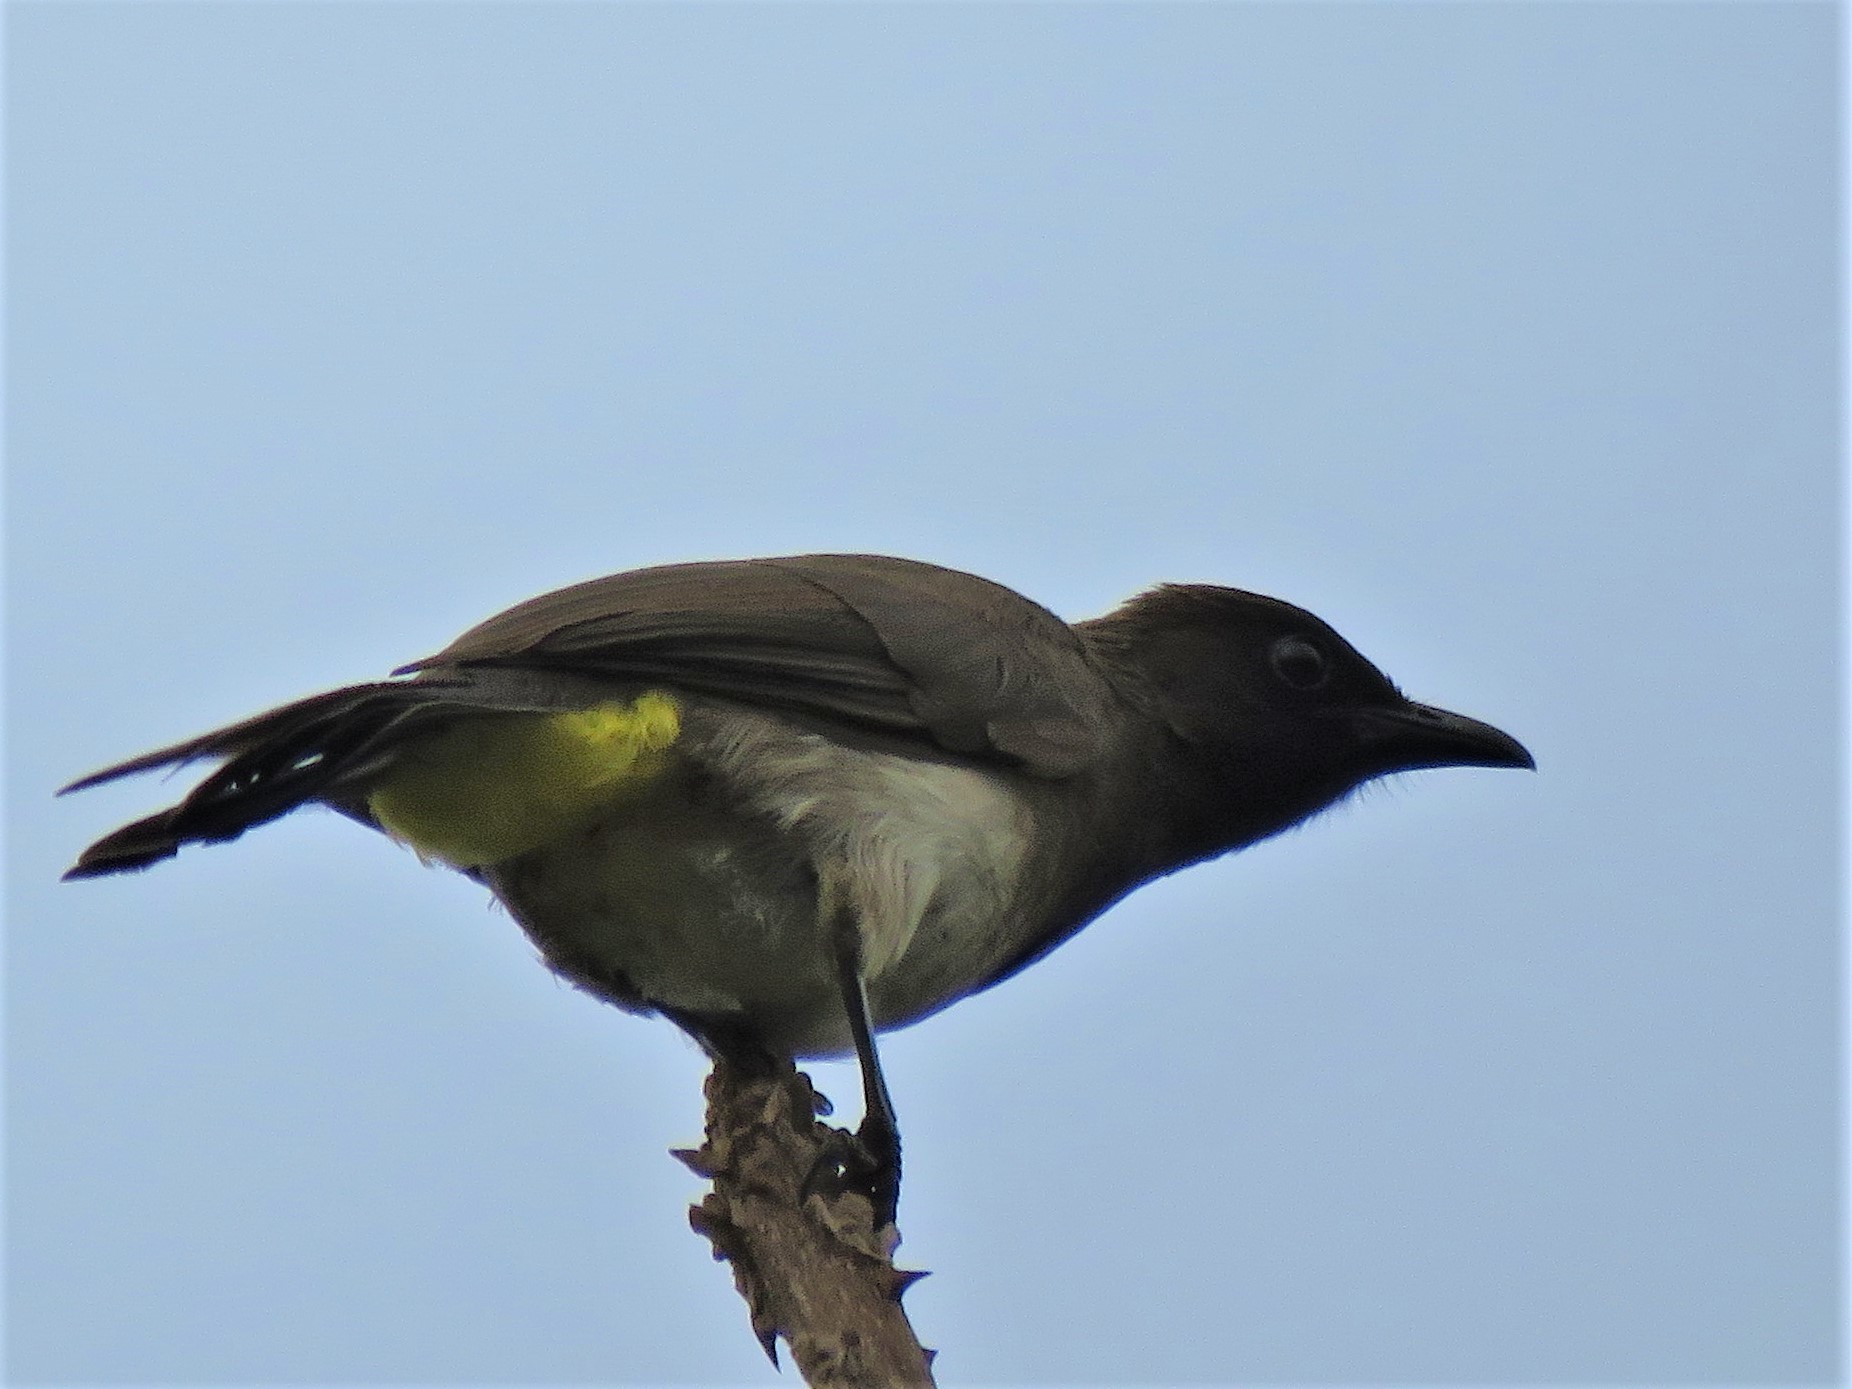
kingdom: Animalia
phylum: Chordata
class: Aves
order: Passeriformes
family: Pycnonotidae
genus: Pycnonotus
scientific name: Pycnonotus barbatus
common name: Common bulbul
